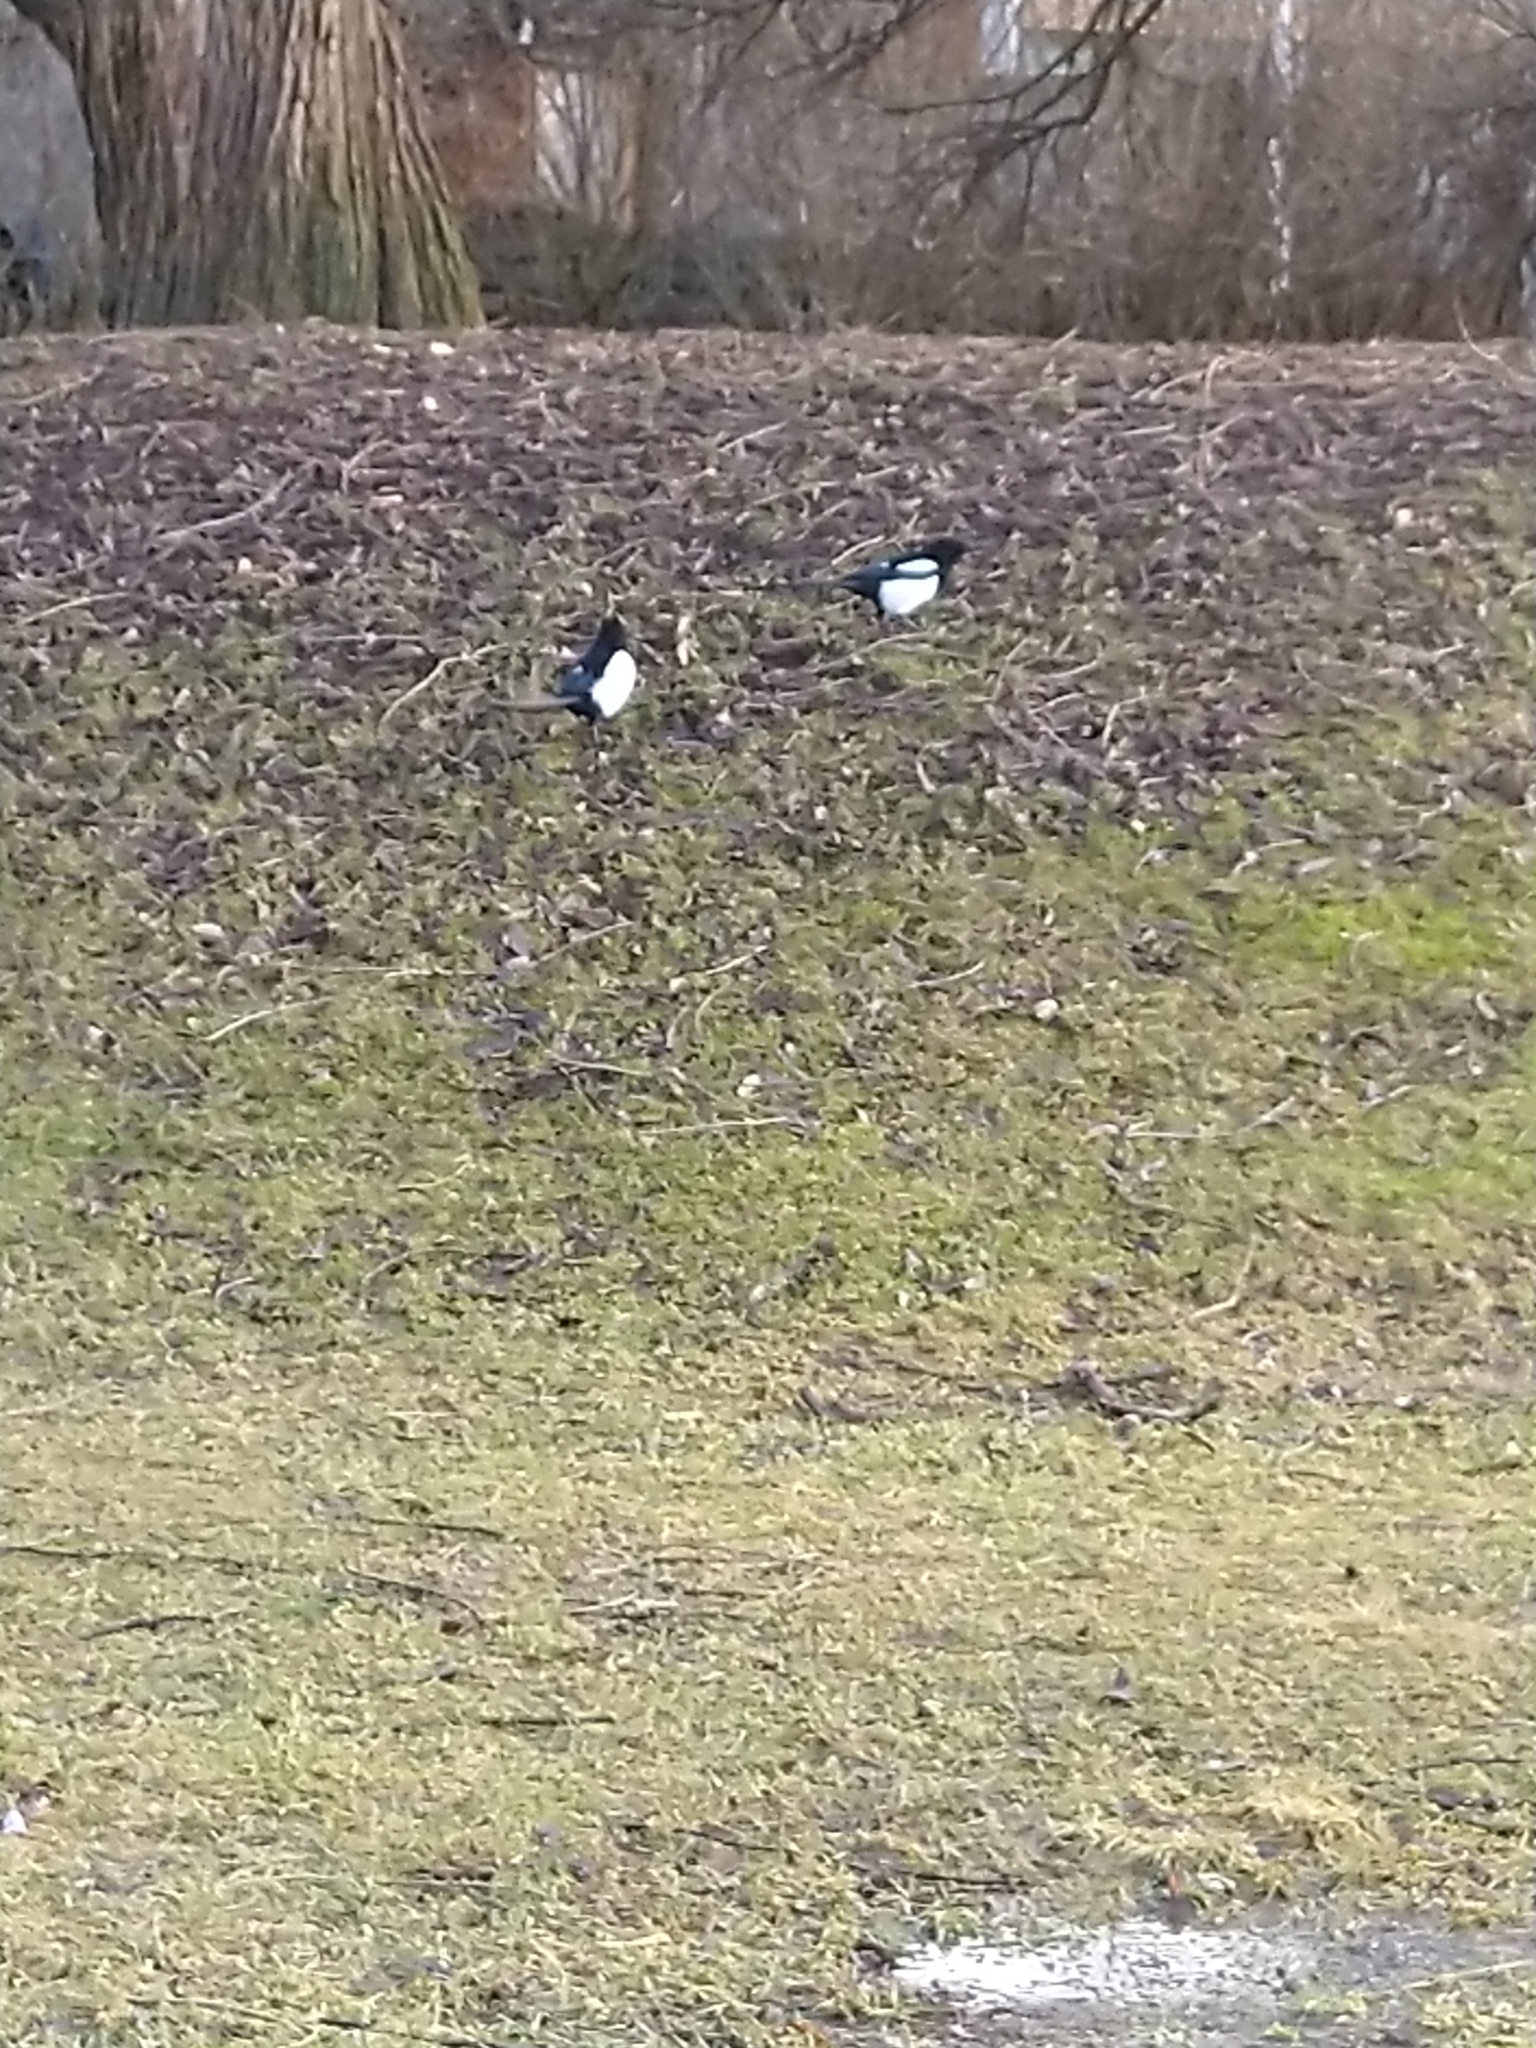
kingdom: Animalia
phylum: Chordata
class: Aves
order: Passeriformes
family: Corvidae
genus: Pica
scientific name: Pica pica
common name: Eurasian magpie
